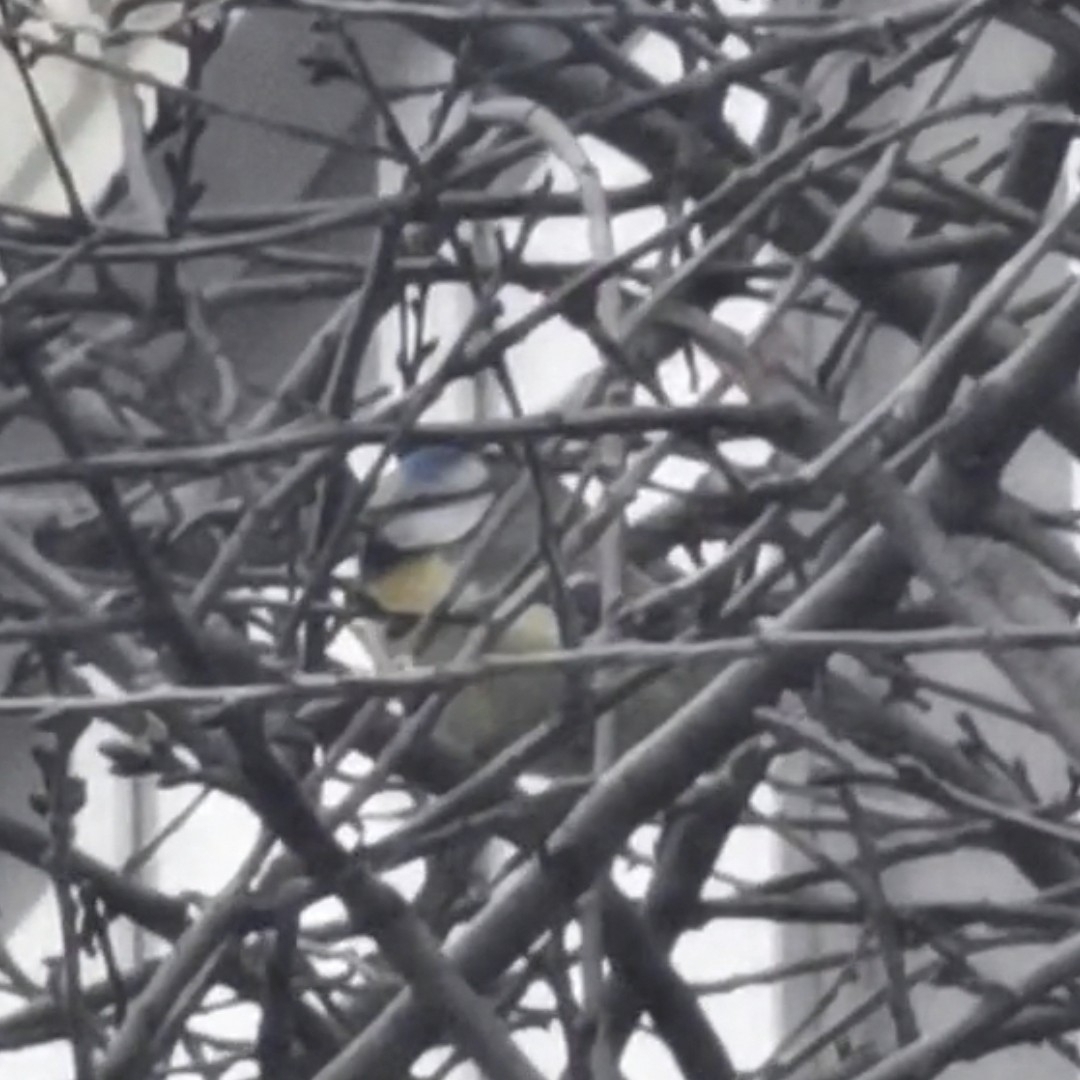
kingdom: Animalia
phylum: Chordata
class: Aves
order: Passeriformes
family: Paridae
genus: Cyanistes
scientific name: Cyanistes caeruleus
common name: Eurasian blue tit
